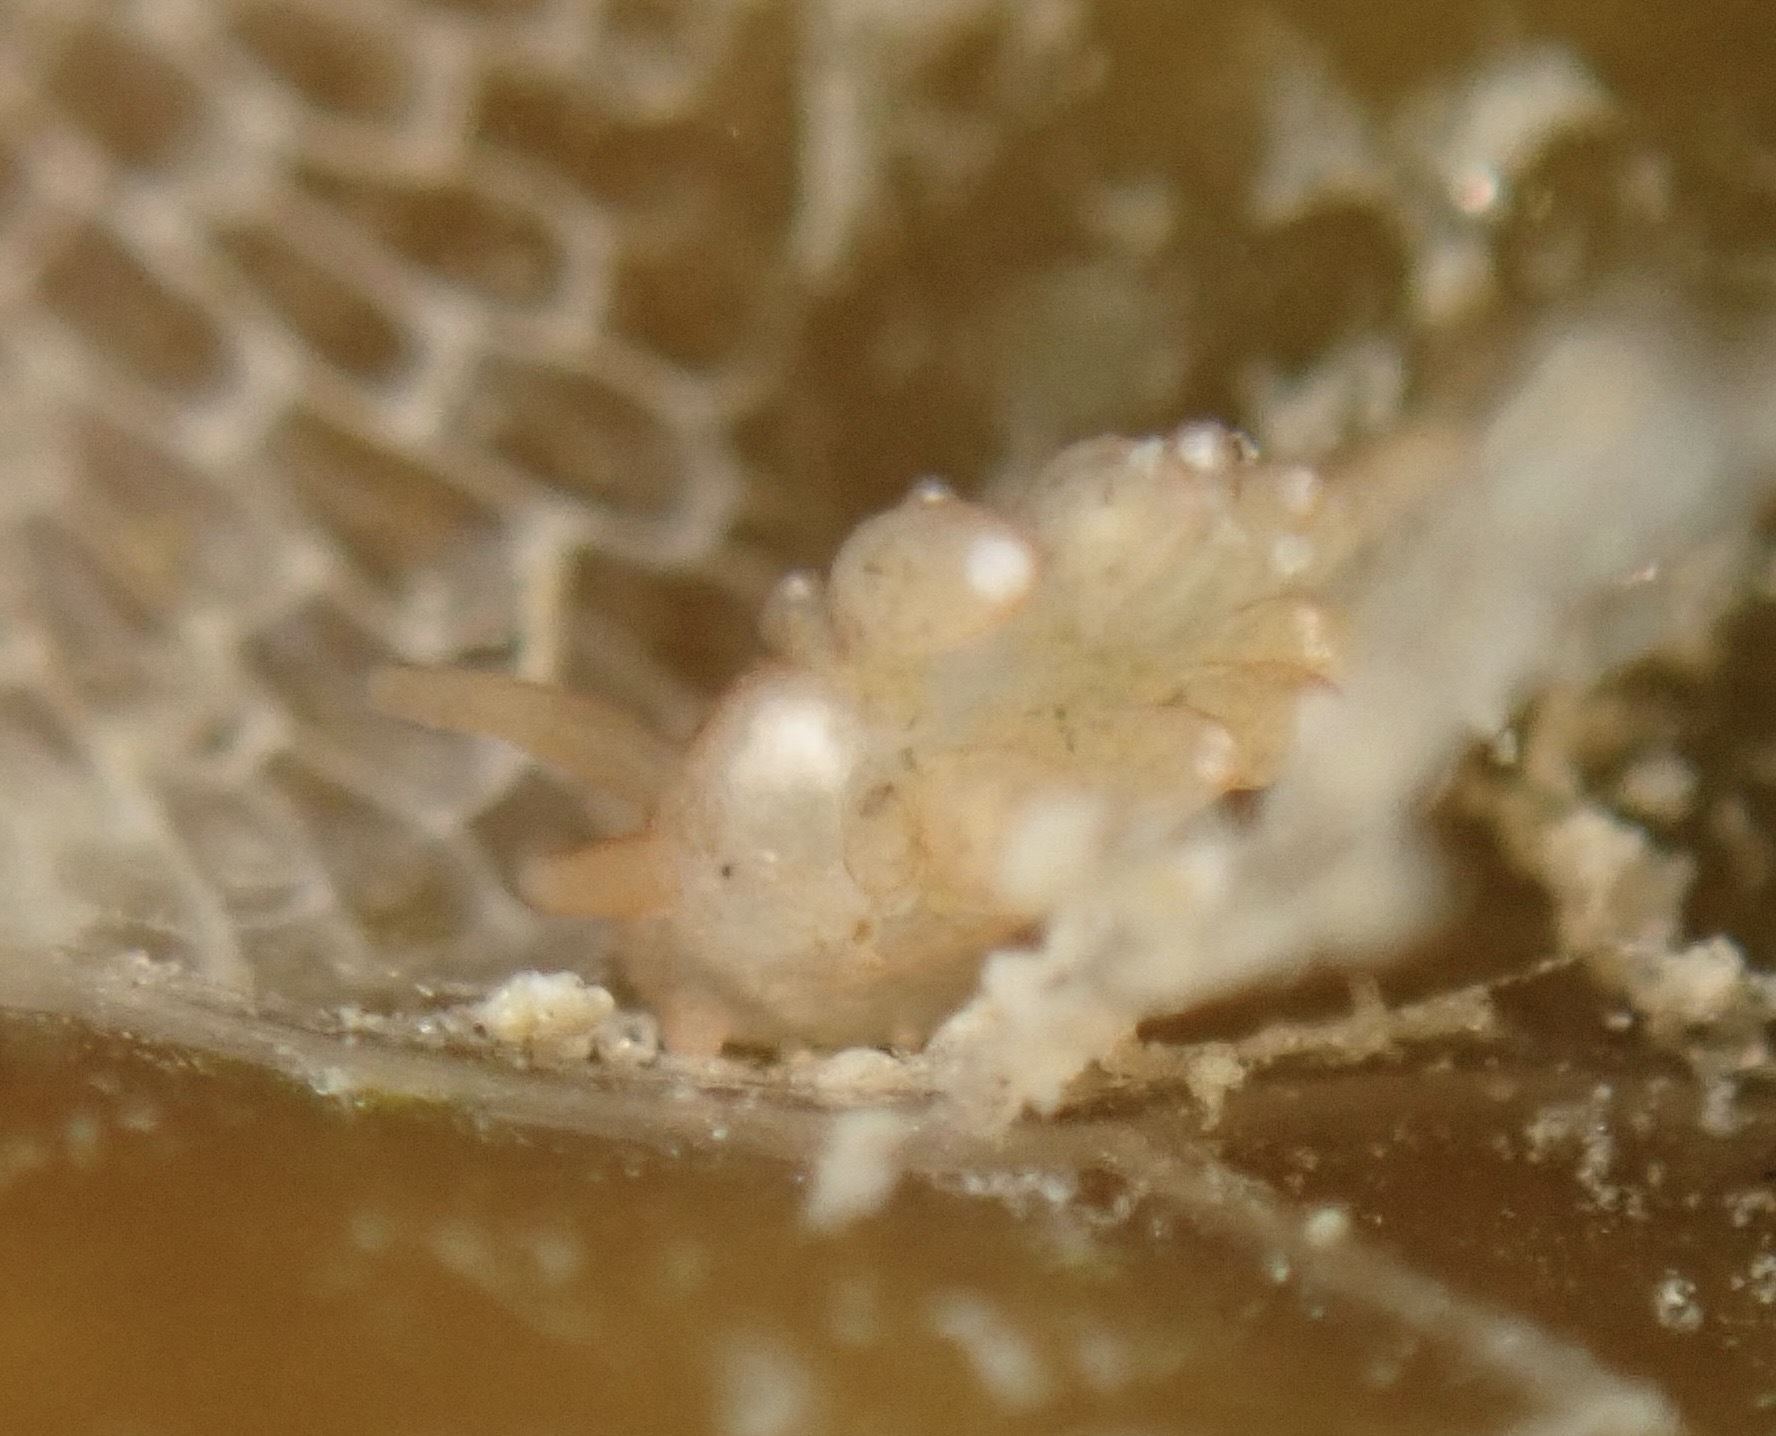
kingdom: Animalia
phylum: Mollusca
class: Gastropoda
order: Nudibranchia
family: Cuthonidae
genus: Cuthona
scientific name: Cuthona phoenix
